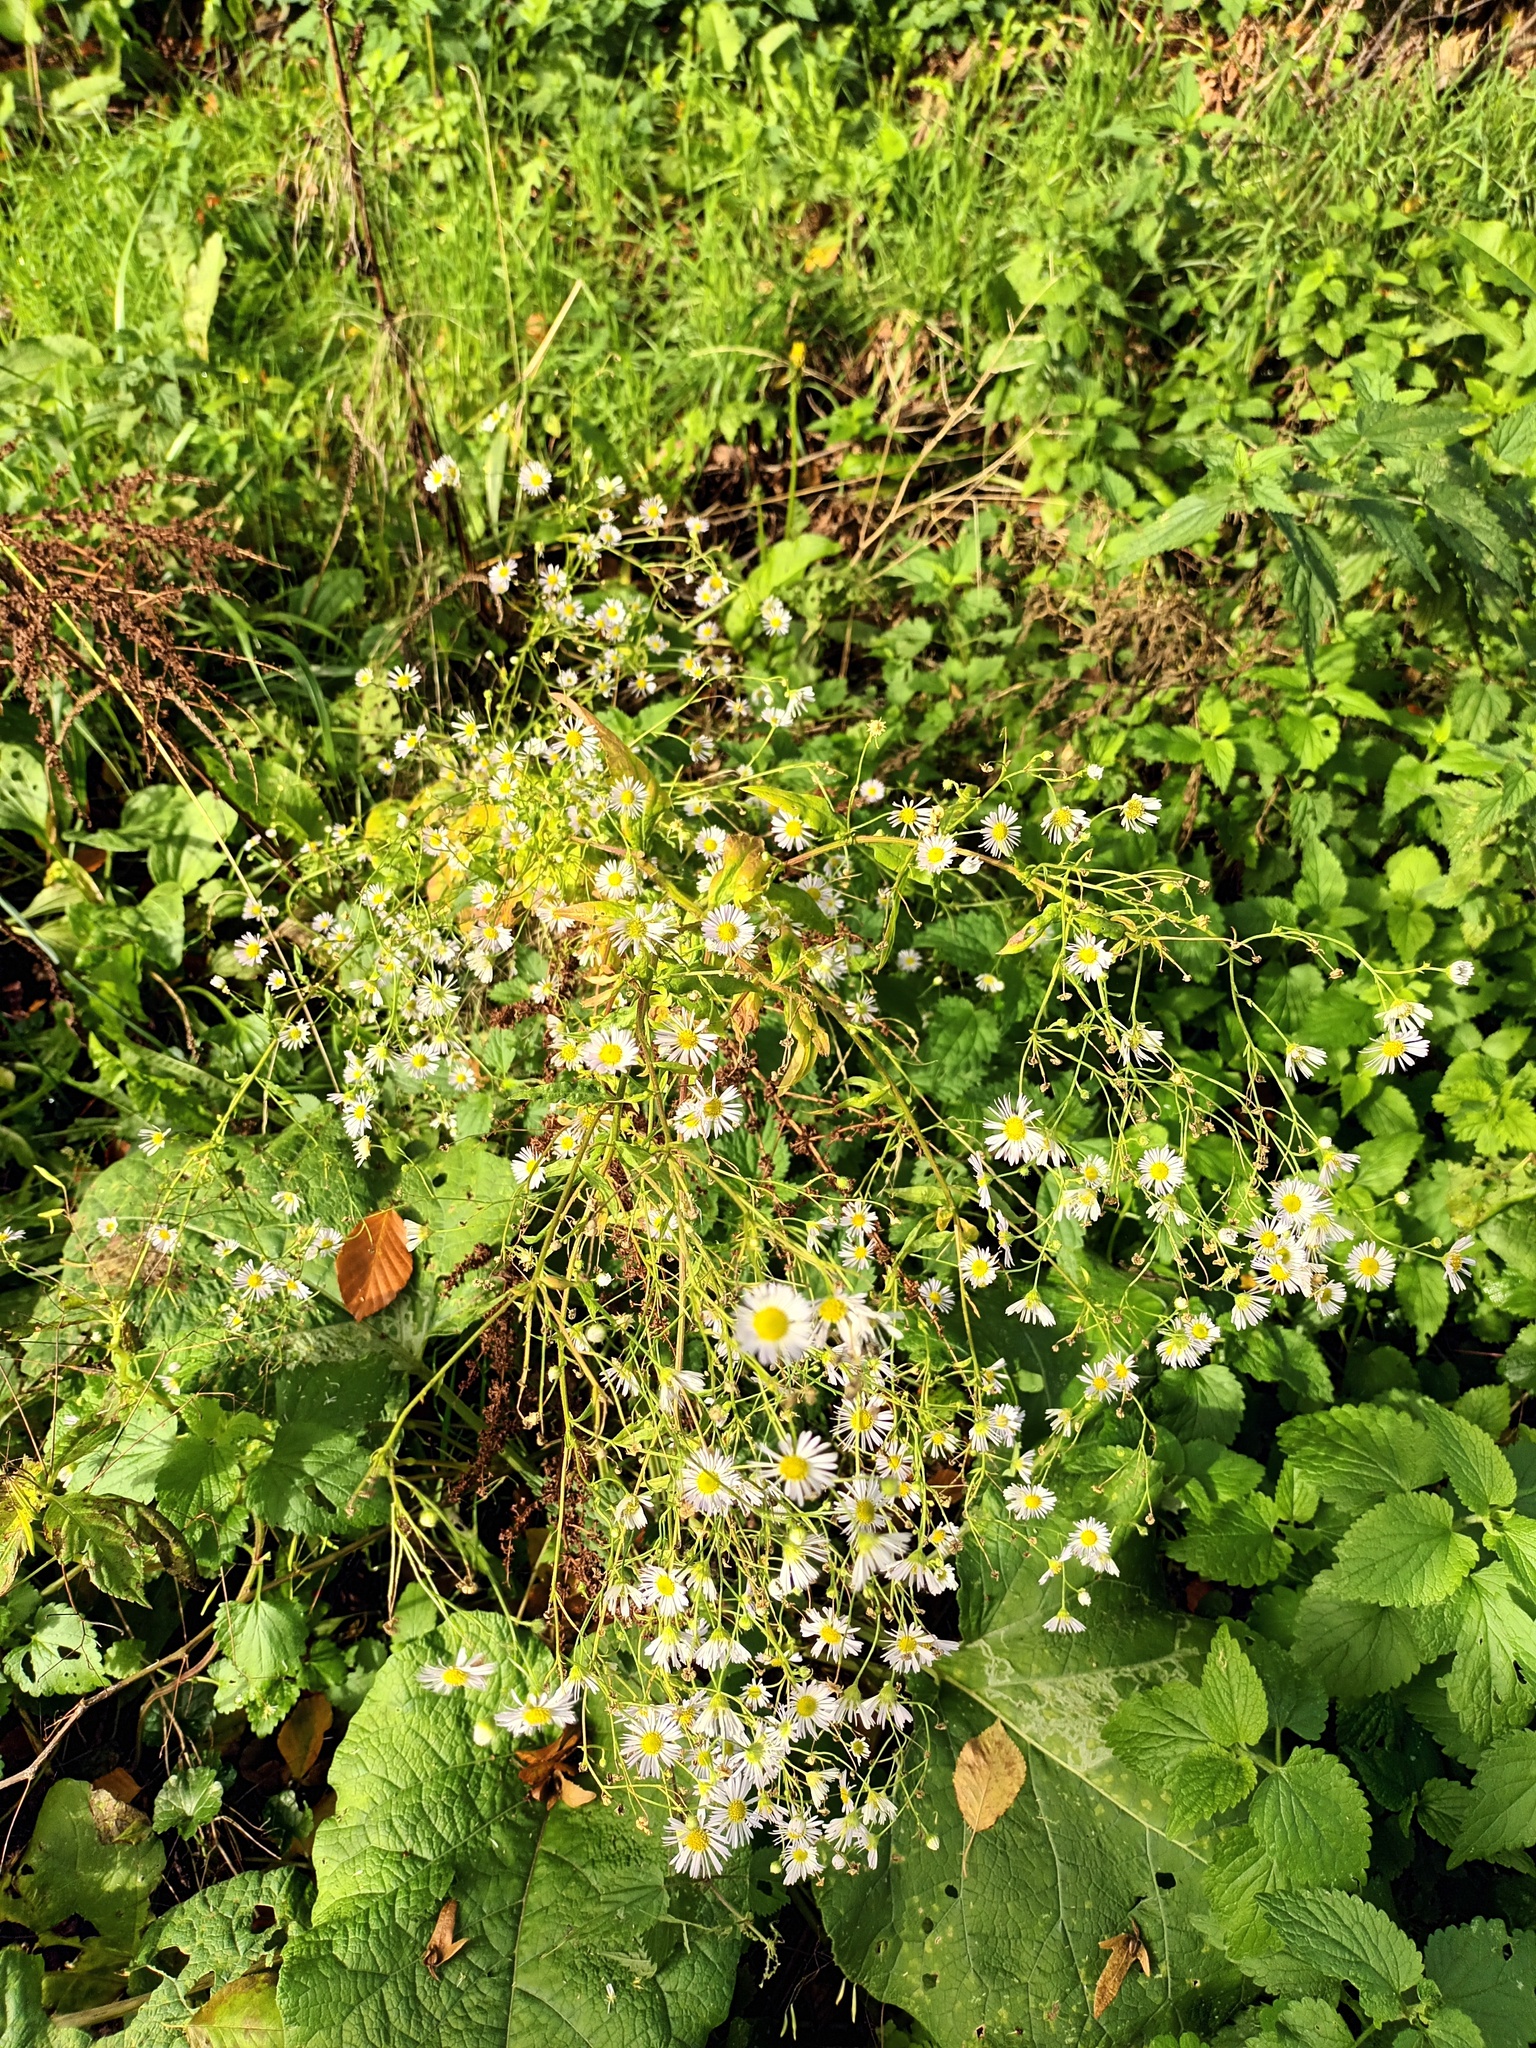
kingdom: Plantae
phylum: Tracheophyta
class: Magnoliopsida
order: Asterales
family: Asteraceae
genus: Erigeron
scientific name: Erigeron annuus
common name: Tall fleabane
